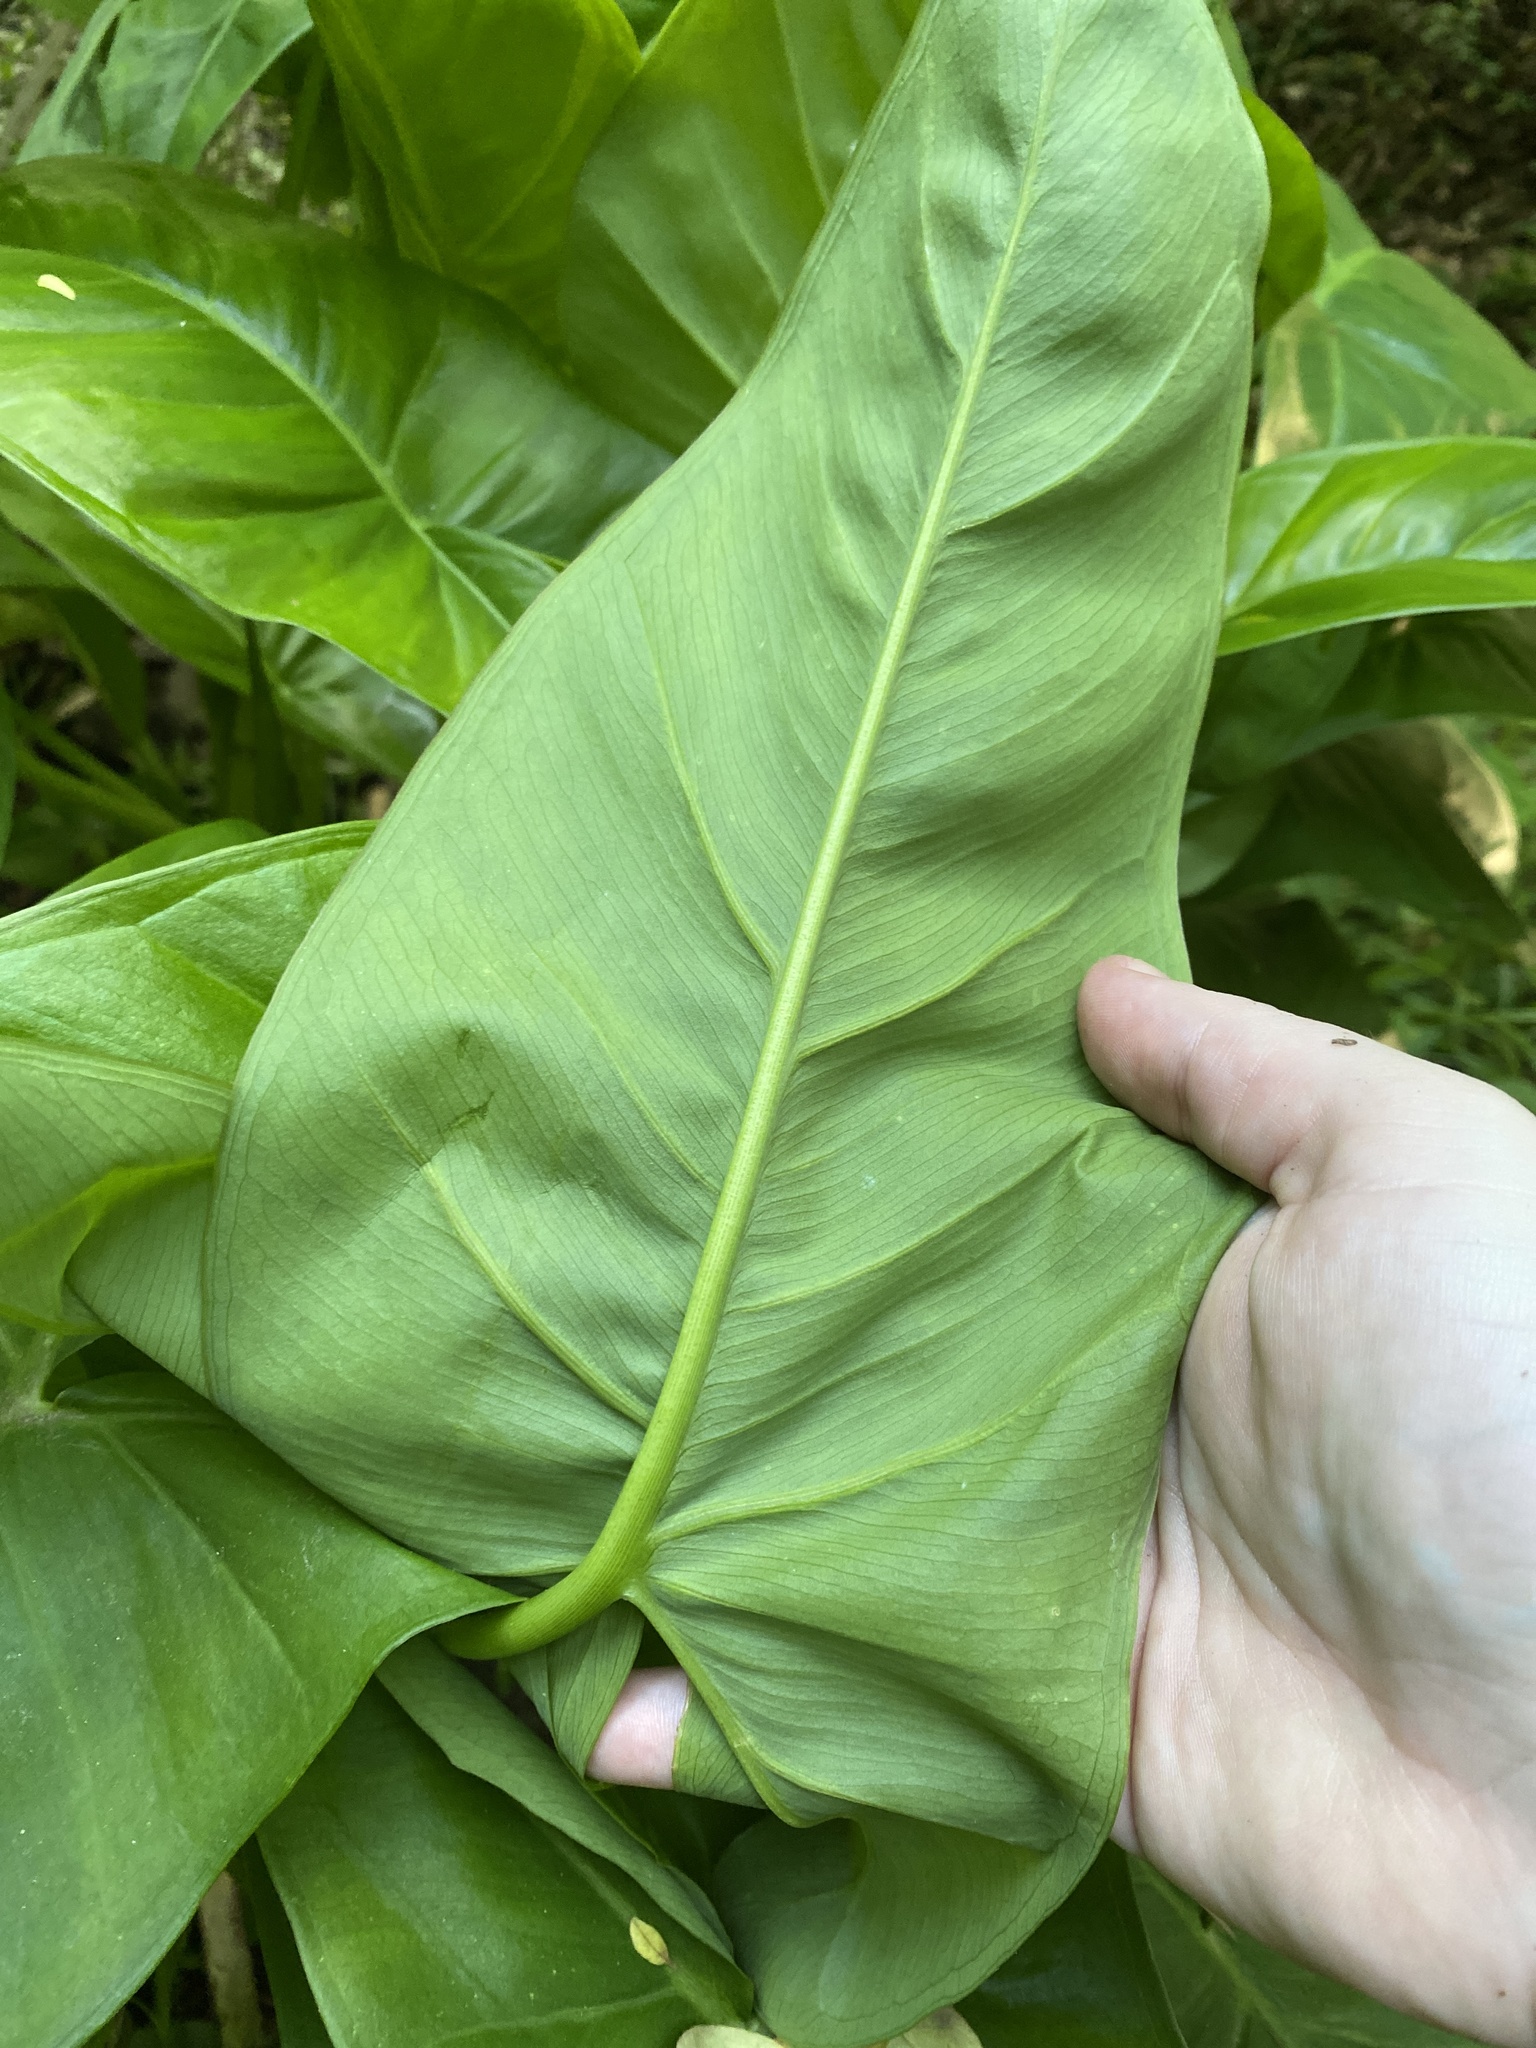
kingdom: Plantae
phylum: Tracheophyta
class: Liliopsida
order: Alismatales
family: Araceae
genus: Peltandra
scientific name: Peltandra virginica
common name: Arrow arum
